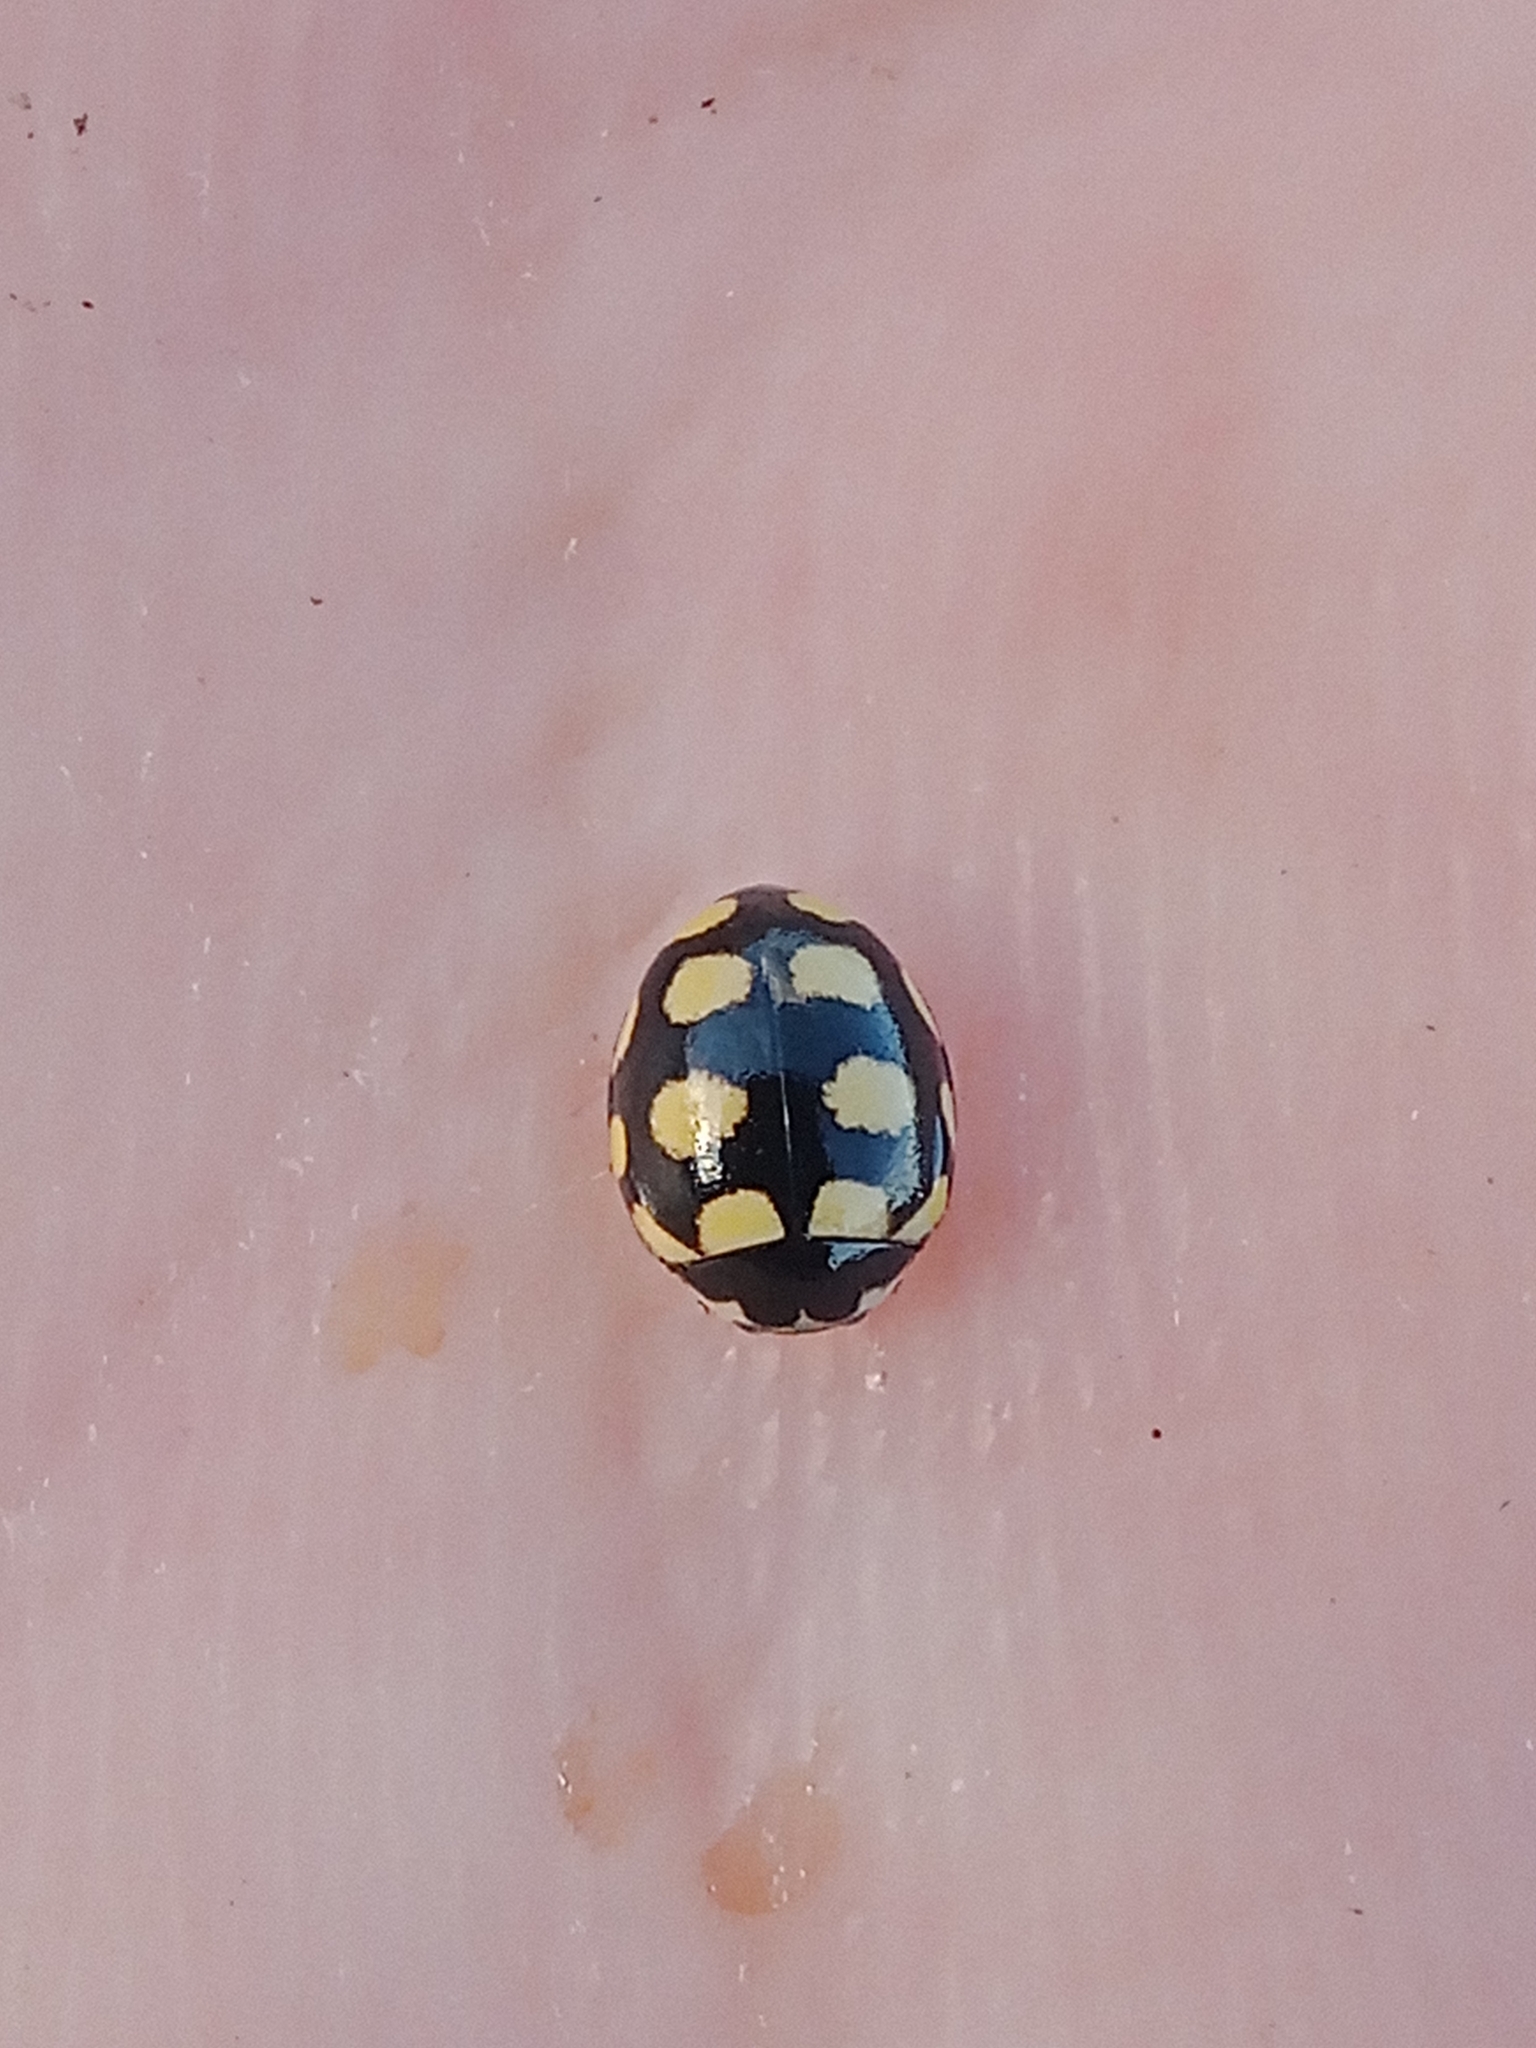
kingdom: Animalia
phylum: Arthropoda
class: Insecta
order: Coleoptera
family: Coccinellidae
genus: Coccinula
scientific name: Coccinula quatuordecimpustulata
